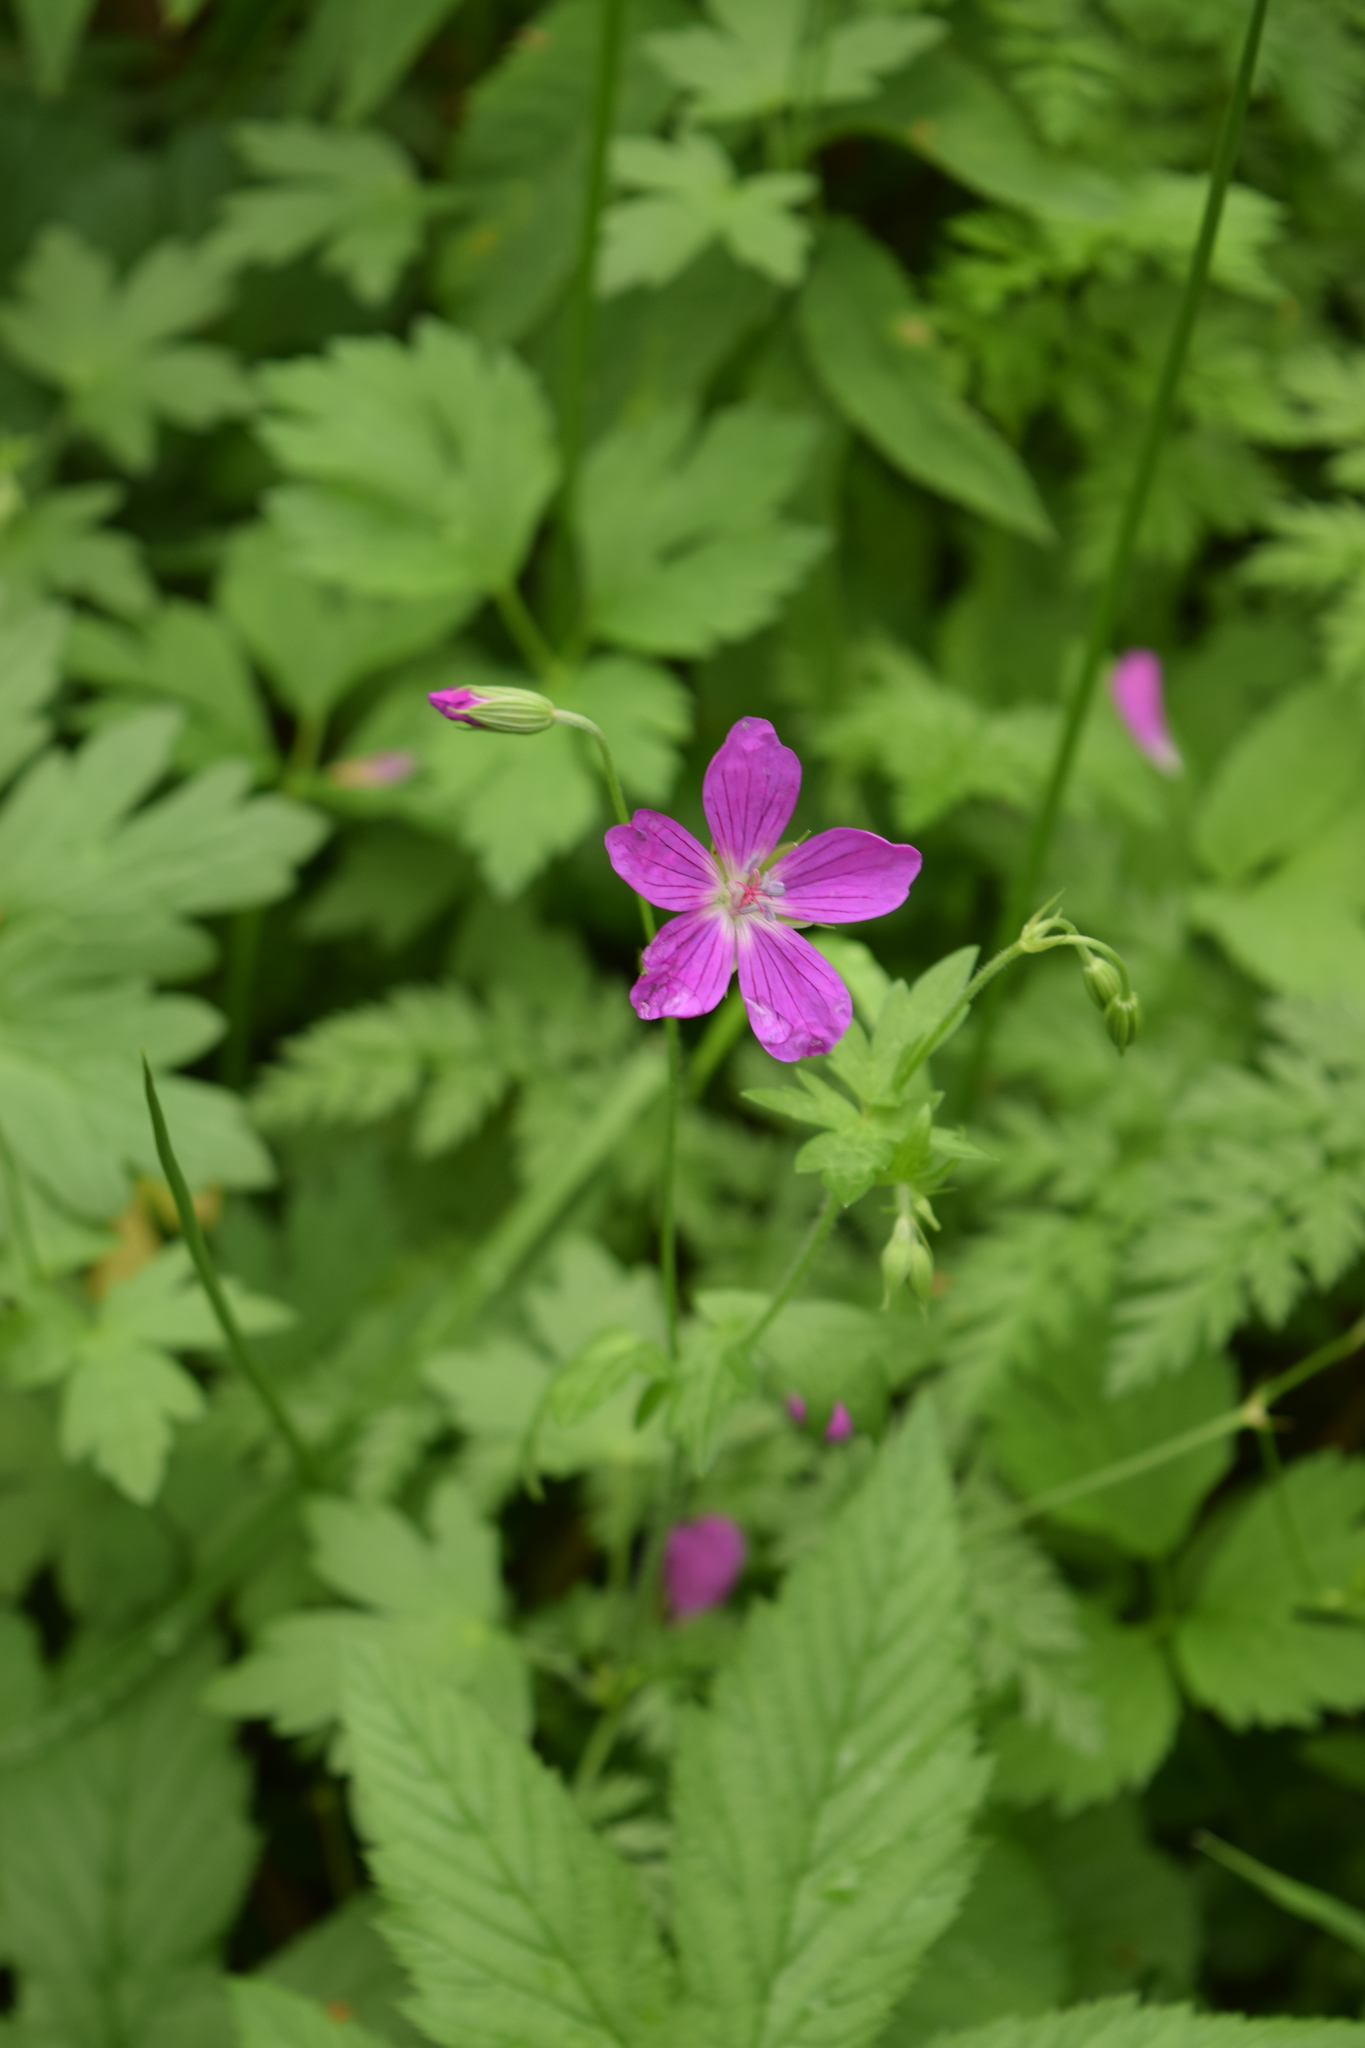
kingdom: Plantae
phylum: Tracheophyta
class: Magnoliopsida
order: Geraniales
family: Geraniaceae
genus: Geranium
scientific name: Geranium palustre
